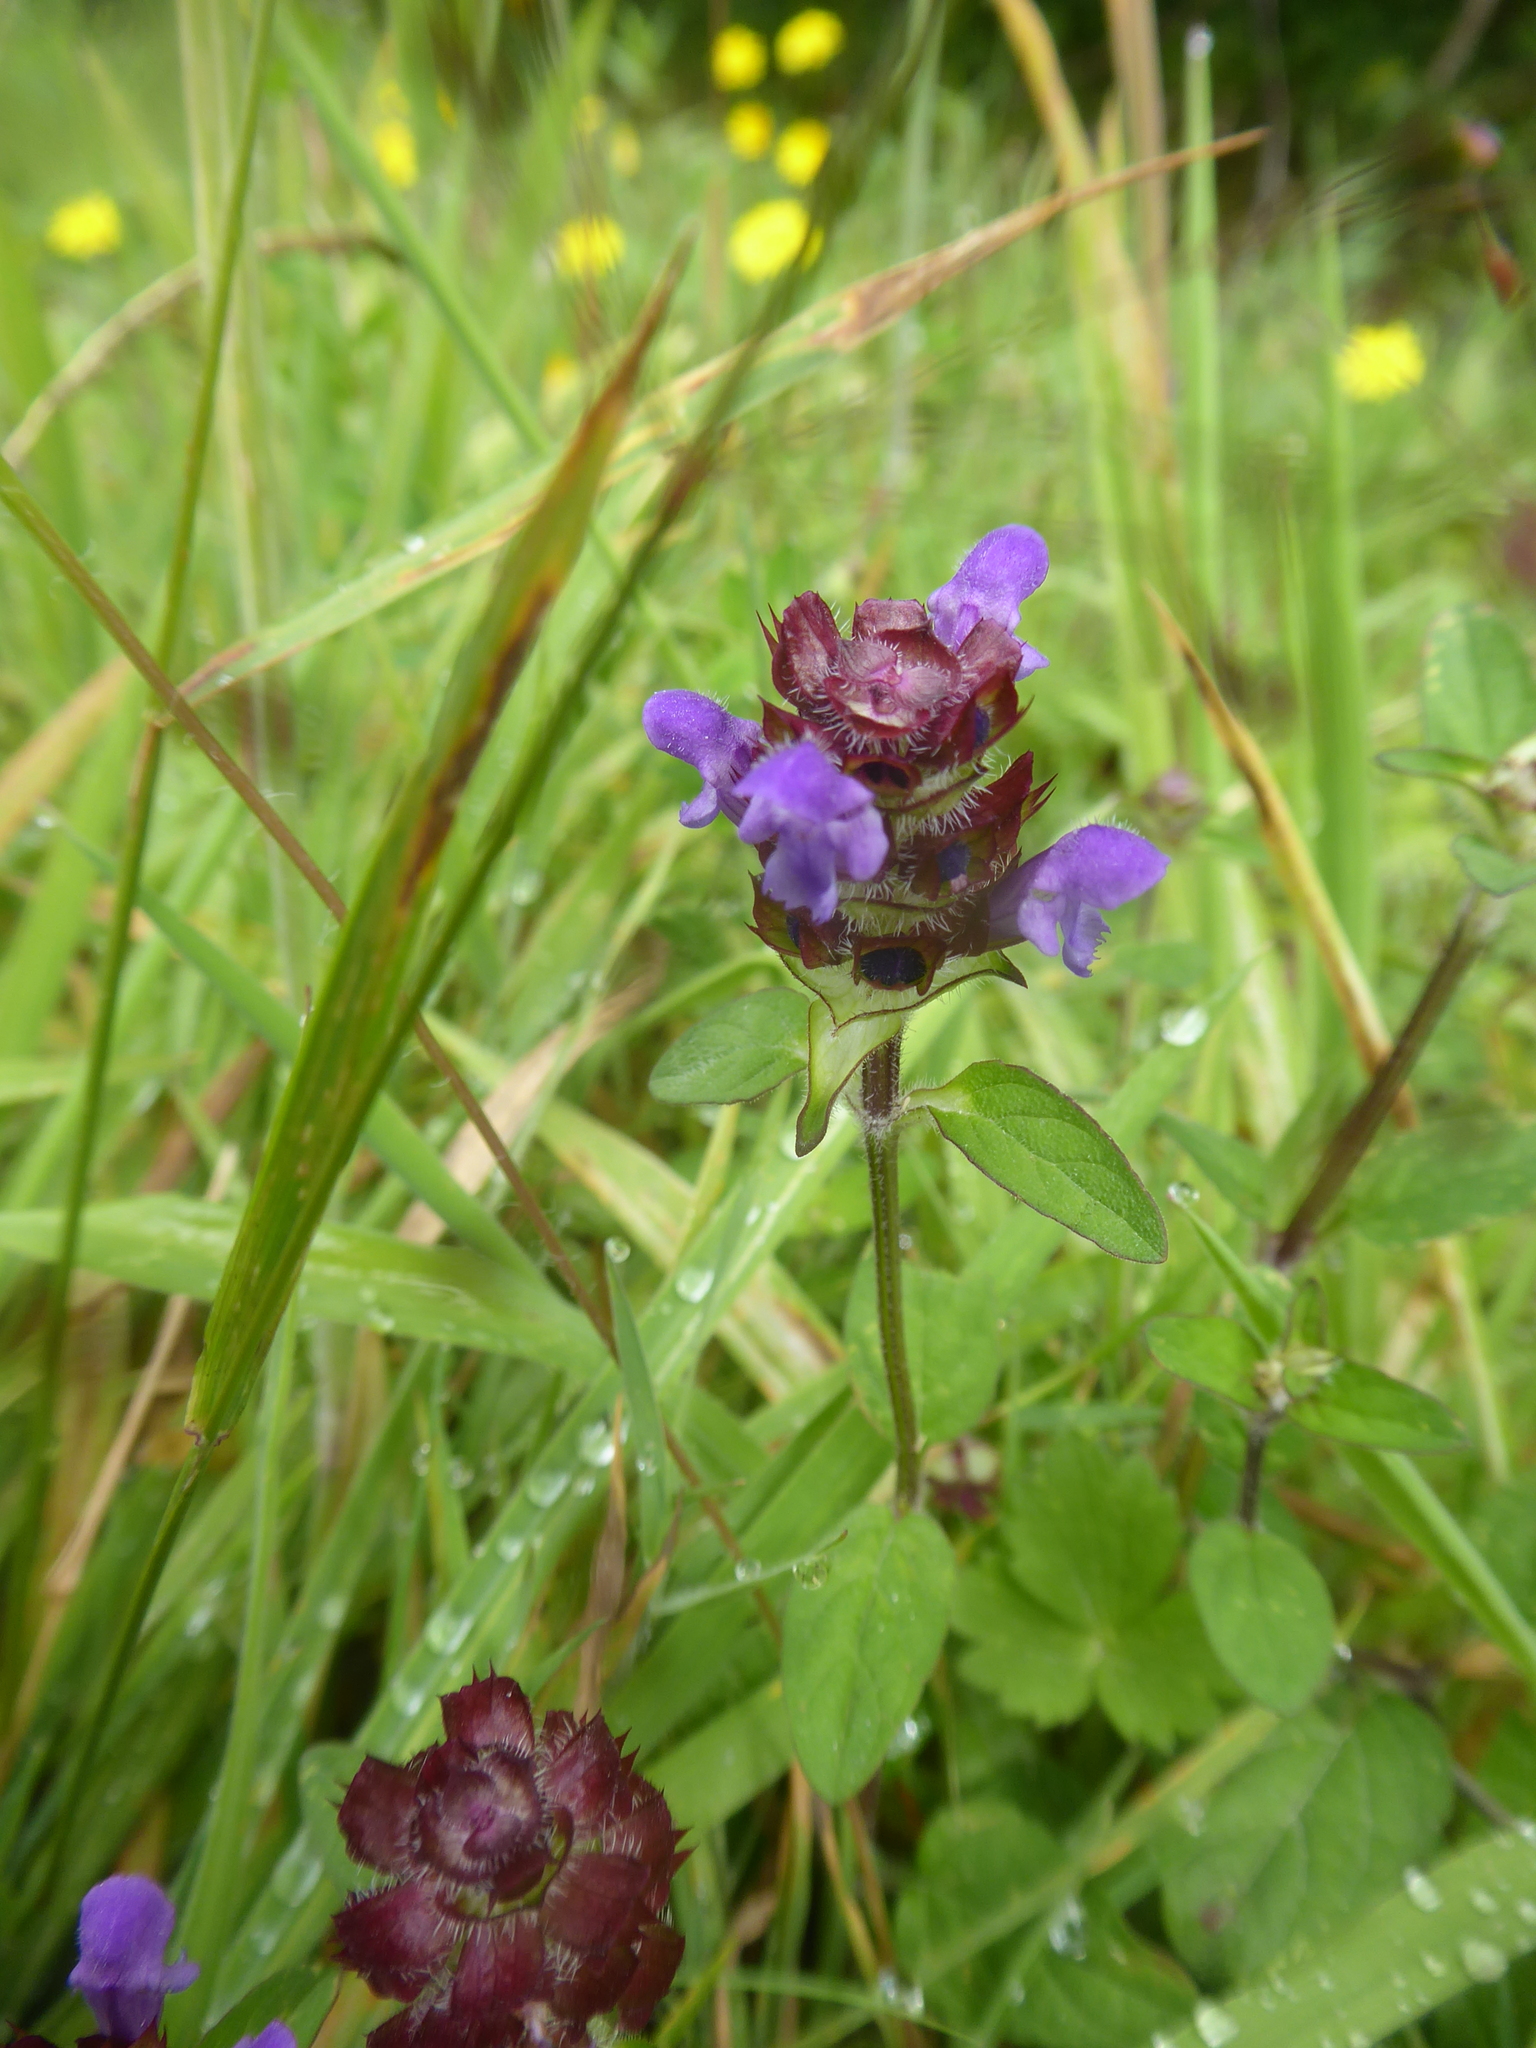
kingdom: Plantae
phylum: Tracheophyta
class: Magnoliopsida
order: Lamiales
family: Lamiaceae
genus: Prunella
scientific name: Prunella vulgaris
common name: Heal-all
